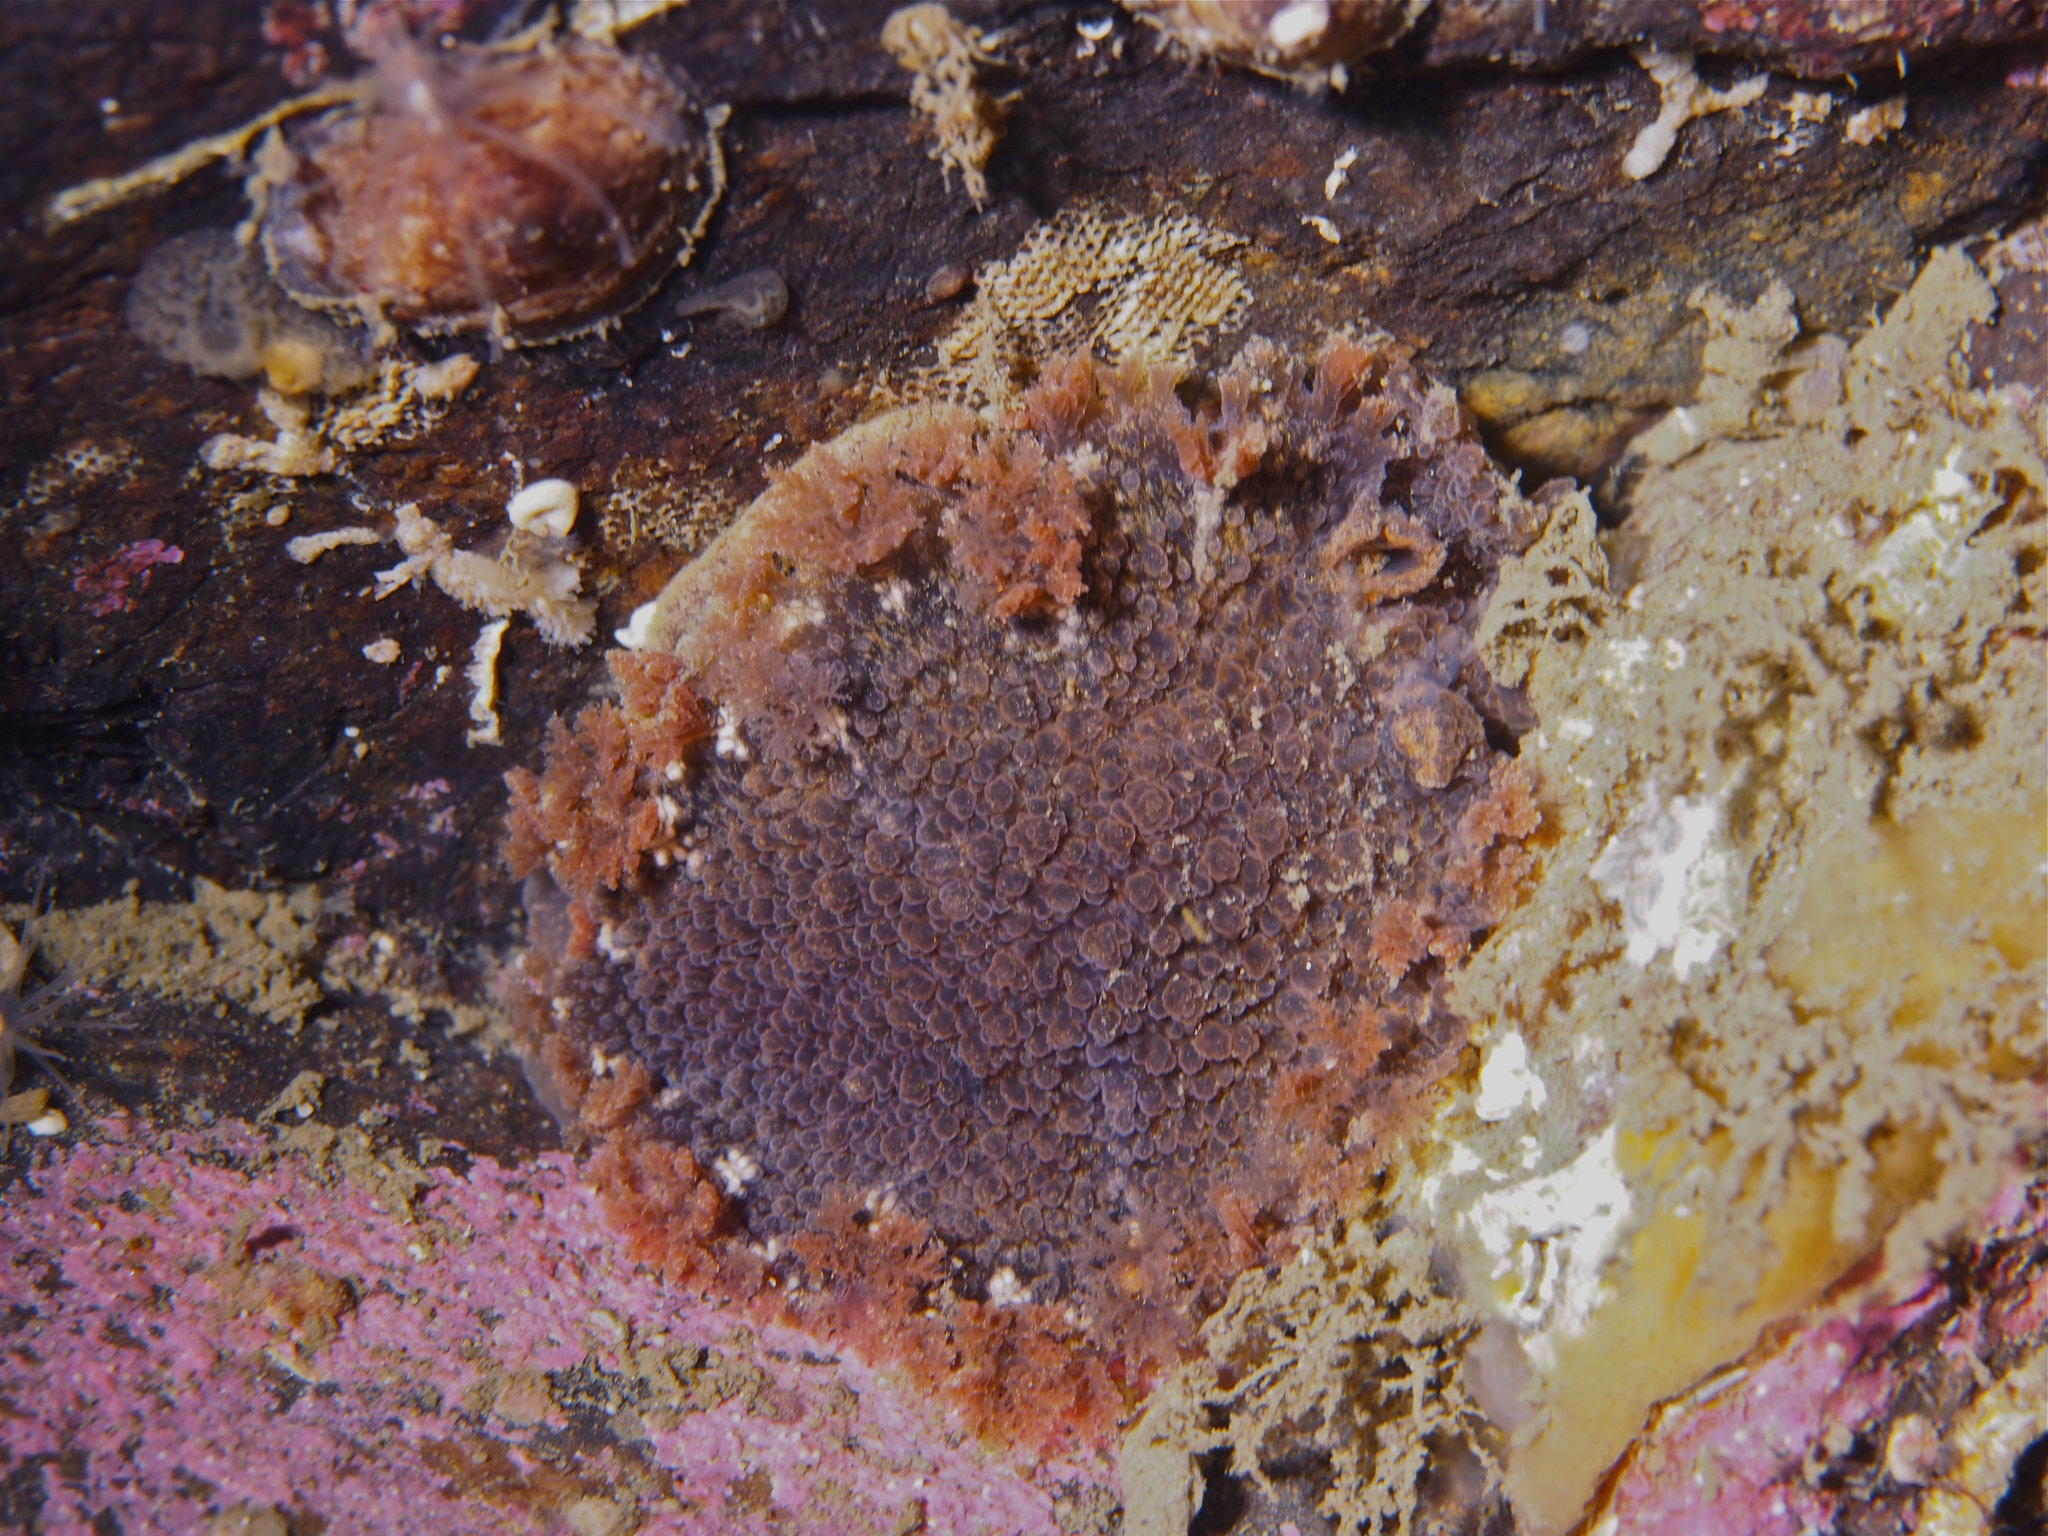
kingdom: Animalia
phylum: Mollusca
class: Gastropoda
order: Nudibranchia
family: Tritoniidae
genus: Tritonia
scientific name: Tritonia hombergii
